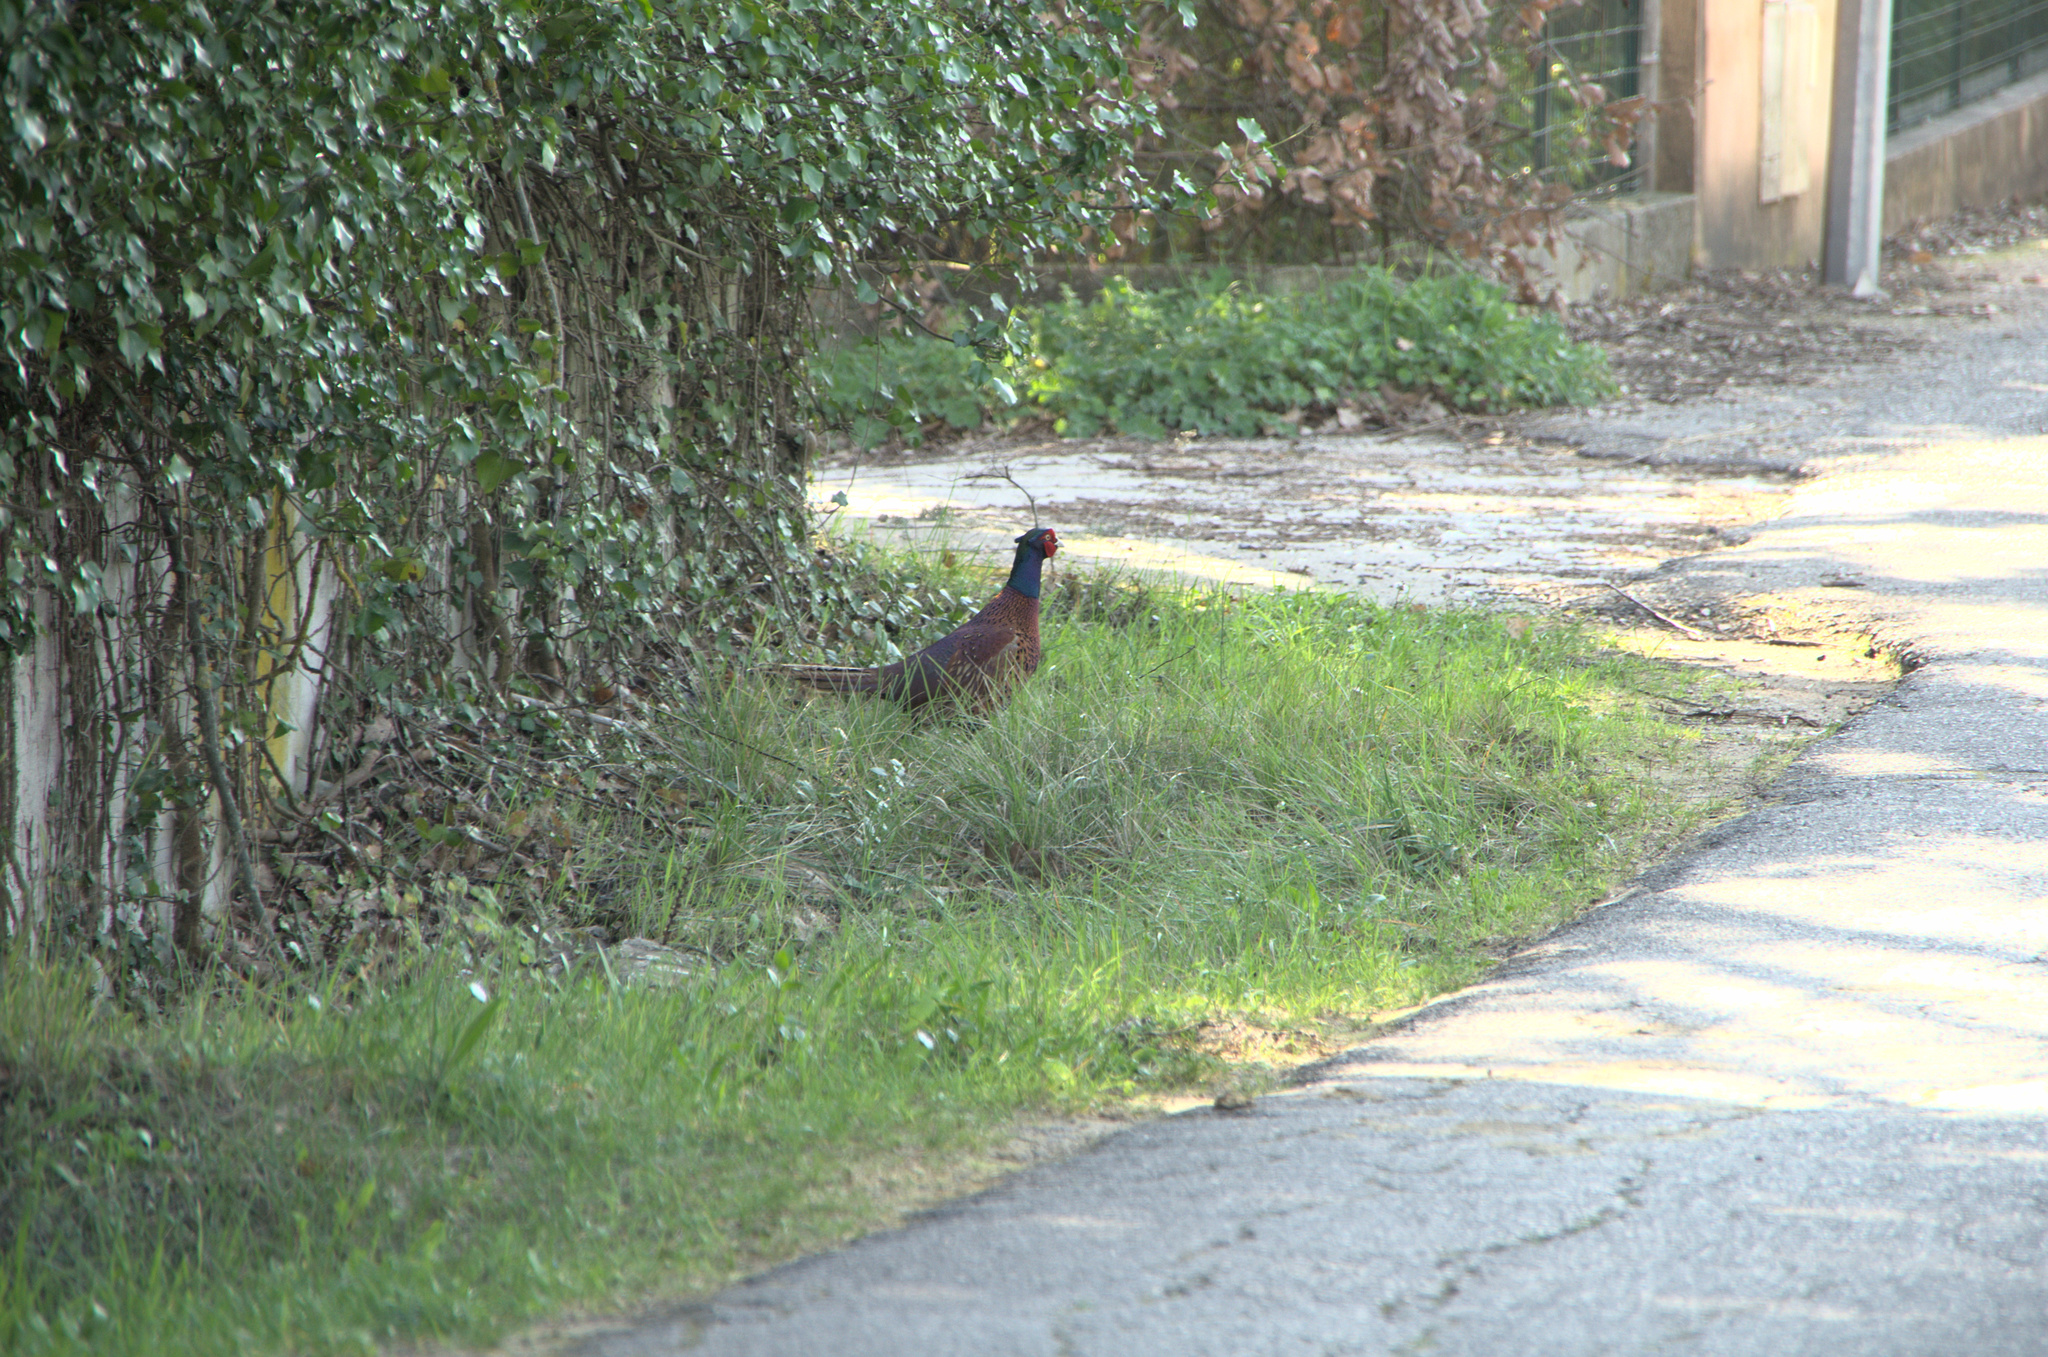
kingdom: Animalia
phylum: Chordata
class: Aves
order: Galliformes
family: Phasianidae
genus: Phasianus
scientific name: Phasianus colchicus
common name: Common pheasant
